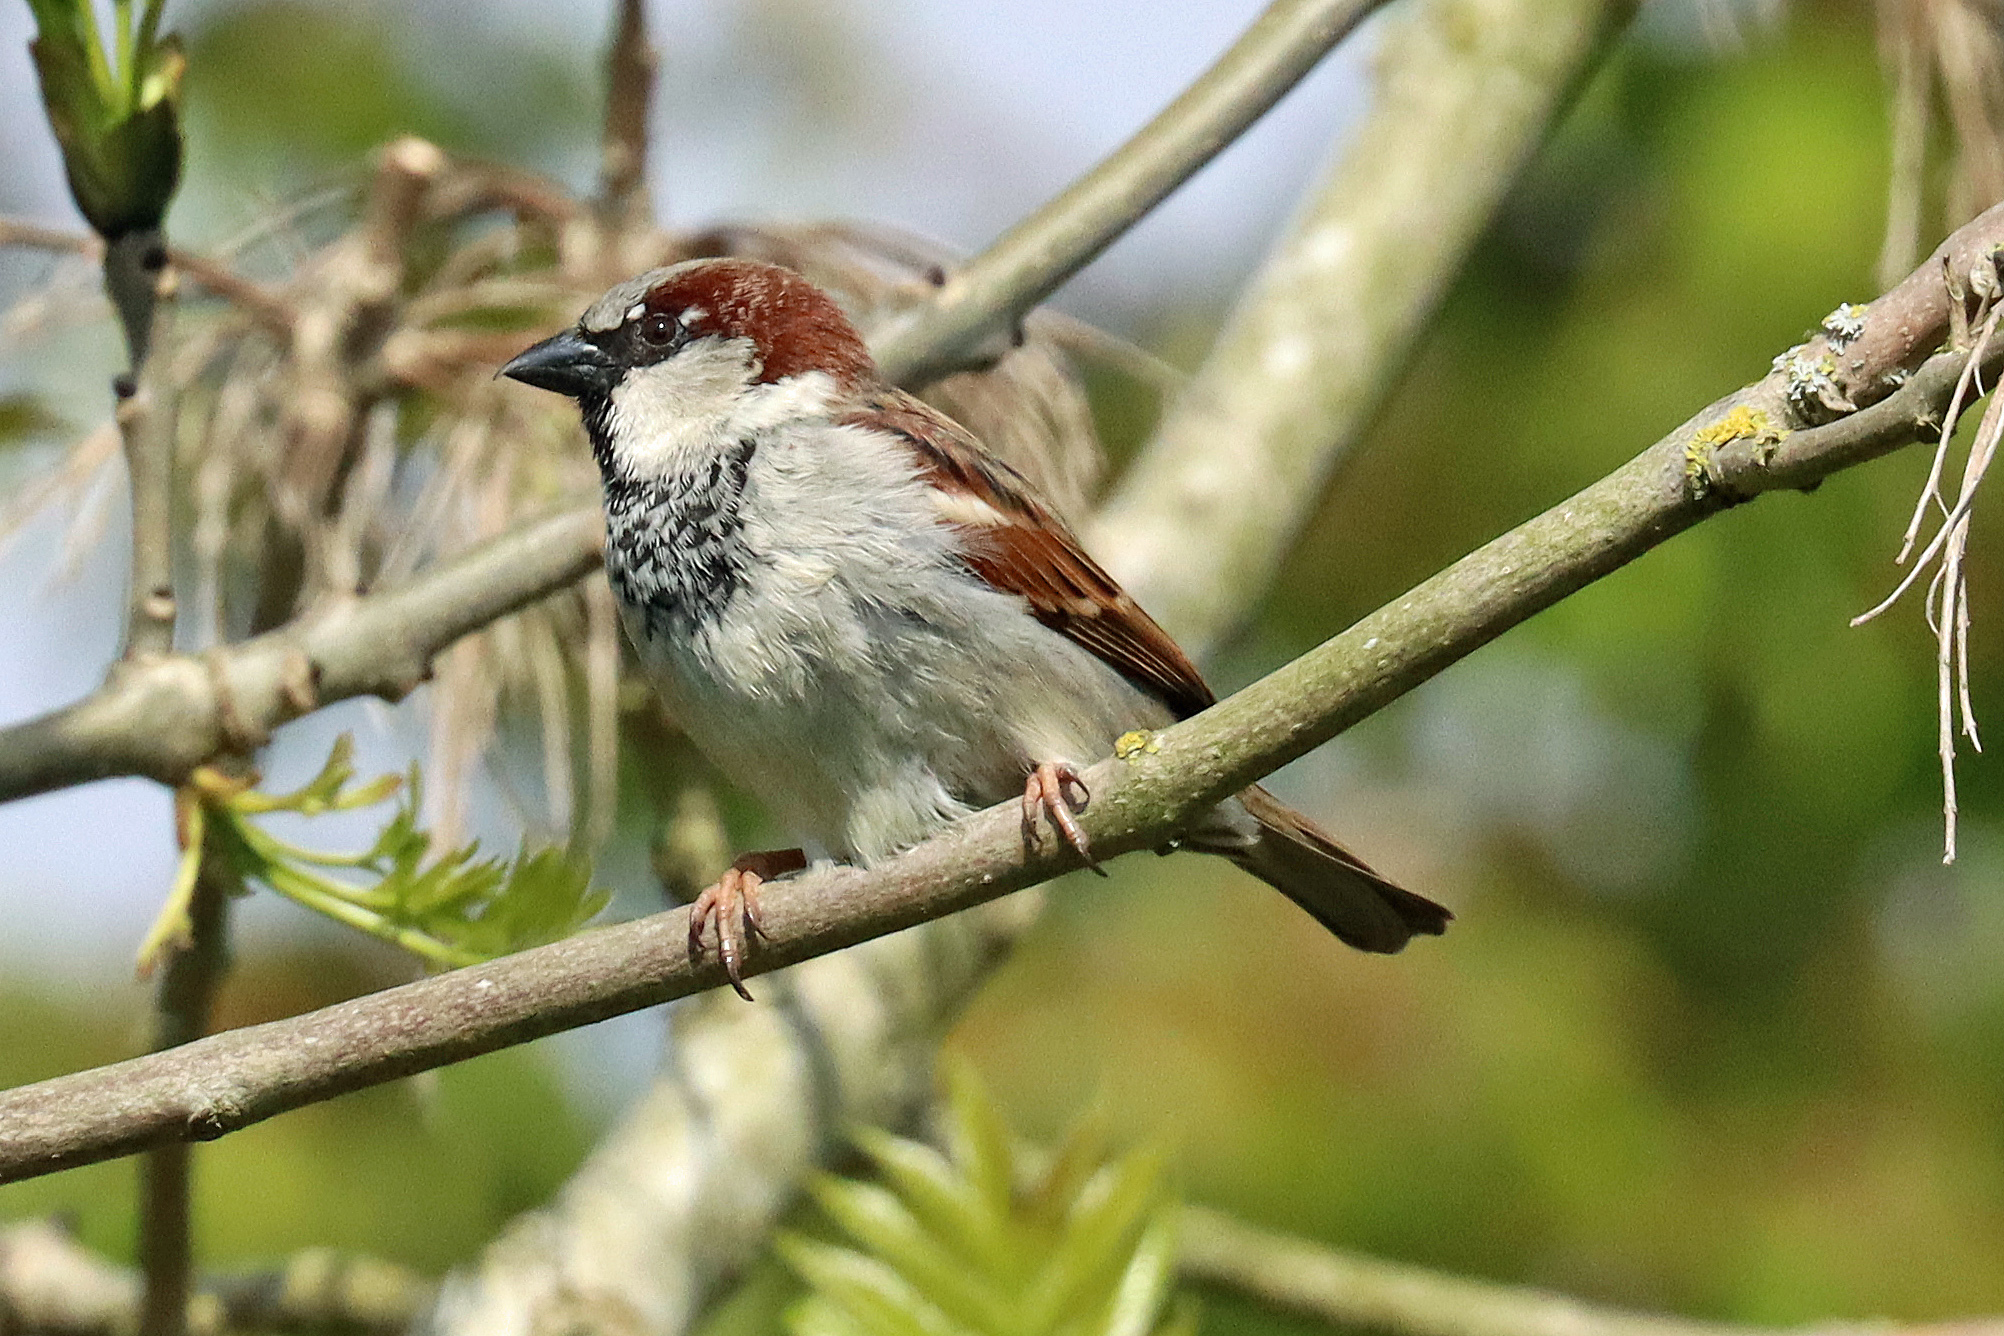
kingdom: Animalia
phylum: Chordata
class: Aves
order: Passeriformes
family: Passeridae
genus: Passer
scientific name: Passer domesticus
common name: House sparrow
